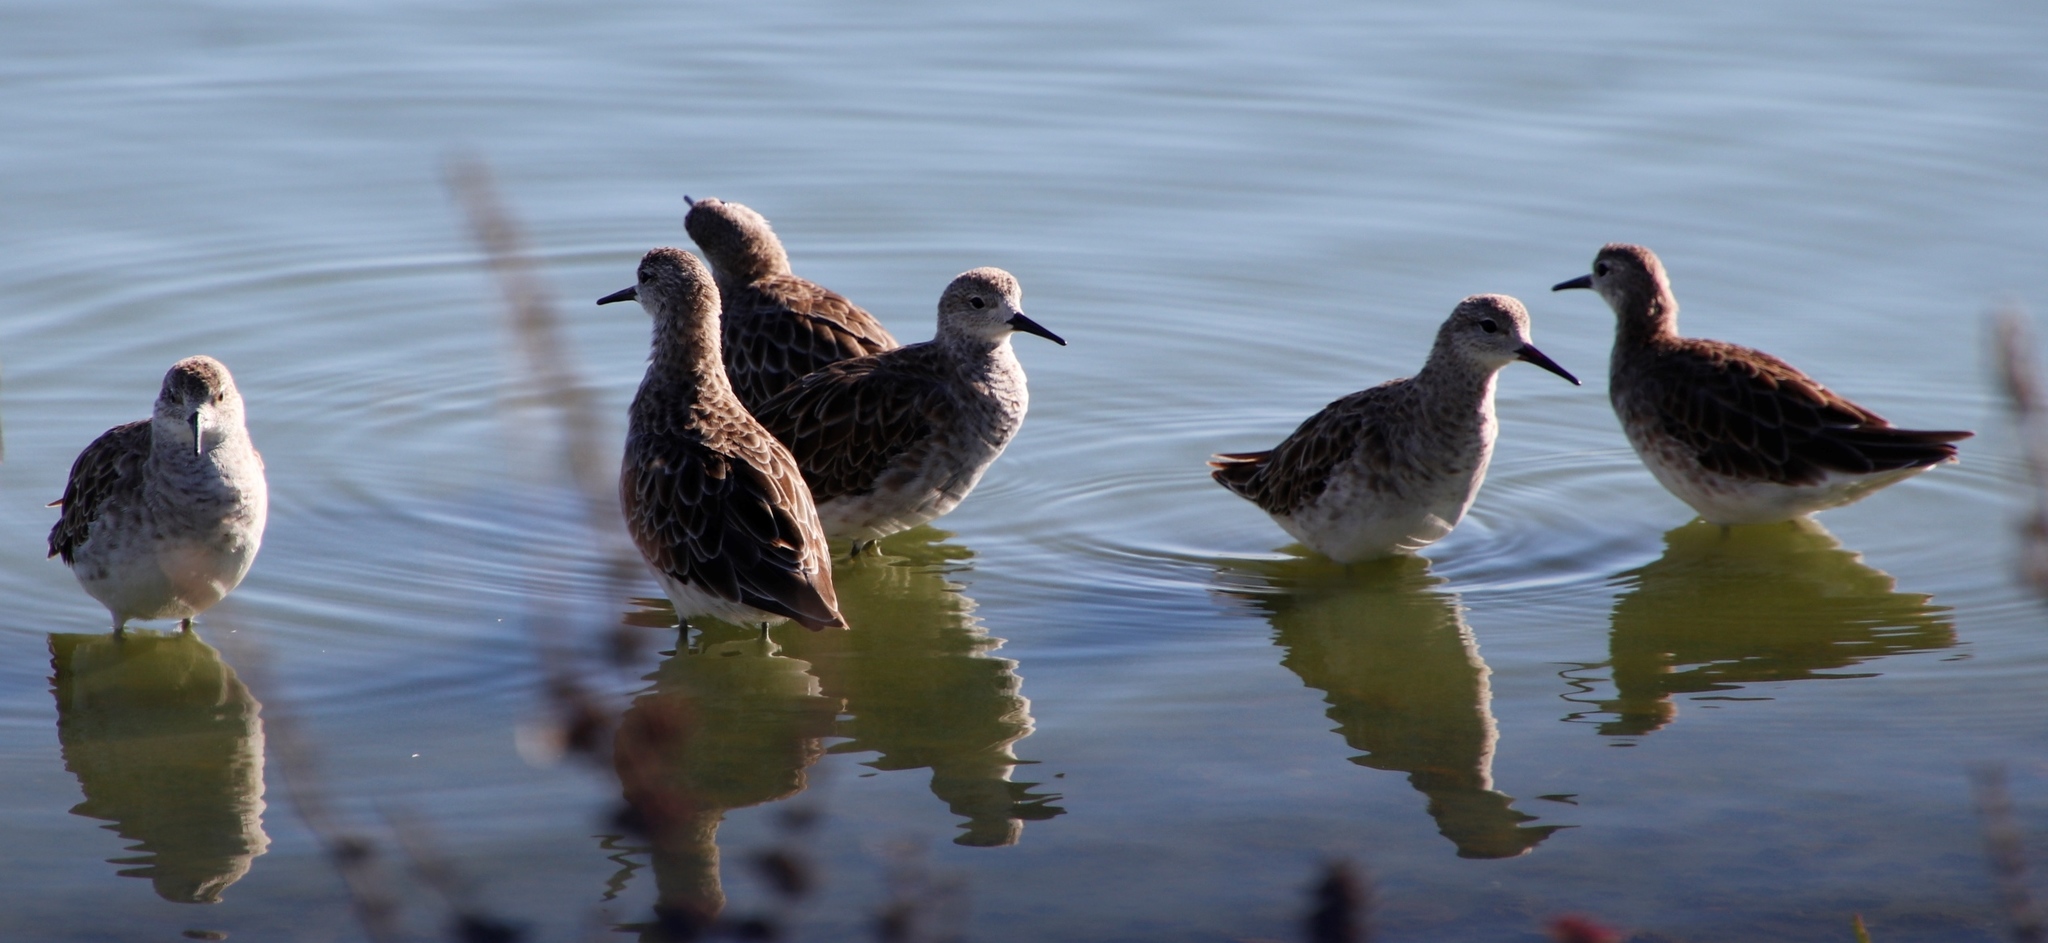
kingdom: Animalia
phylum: Chordata
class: Aves
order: Charadriiformes
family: Scolopacidae
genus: Calidris
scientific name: Calidris pugnax
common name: Ruff
